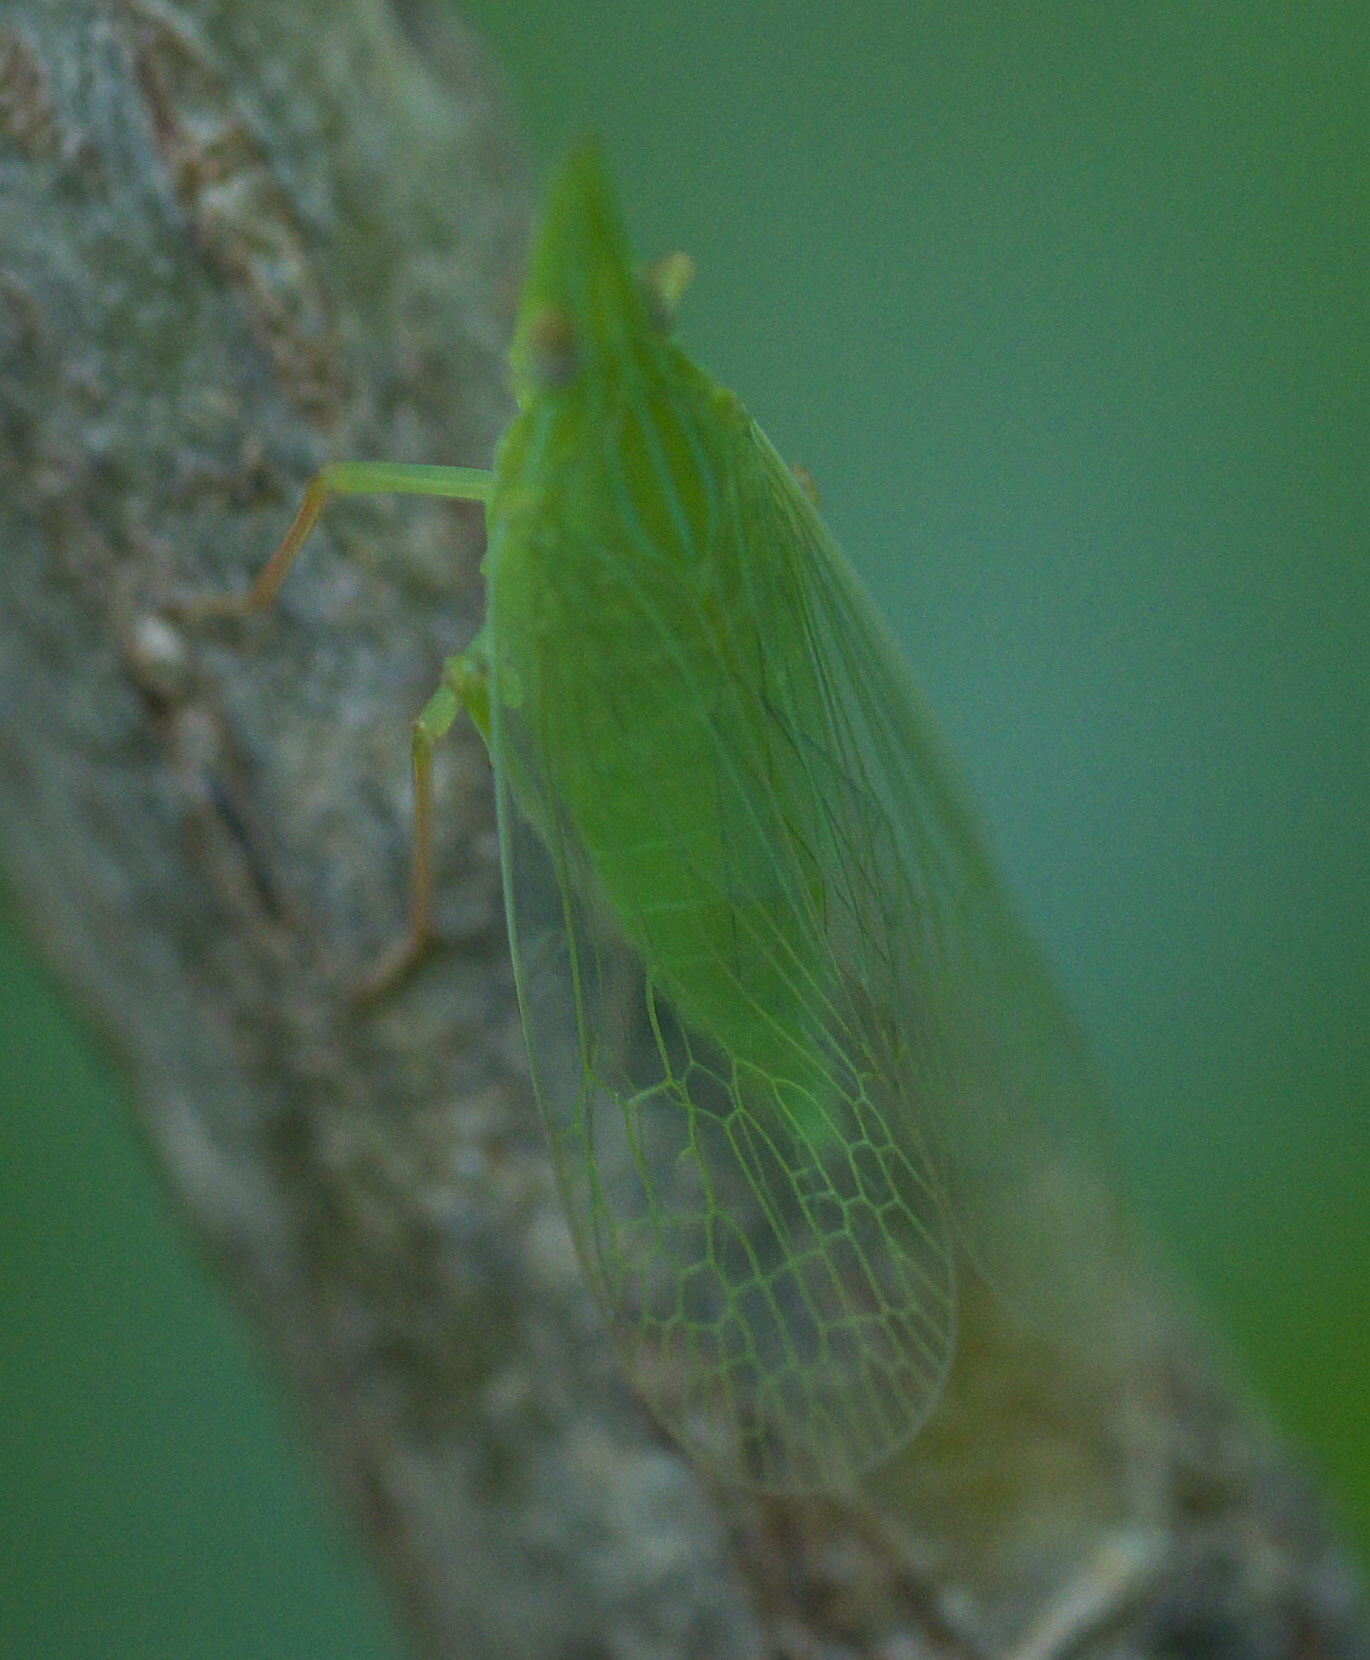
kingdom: Animalia
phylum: Arthropoda
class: Insecta
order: Hemiptera
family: Dictyopharidae
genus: Rhynchomitra
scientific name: Rhynchomitra microrhina
